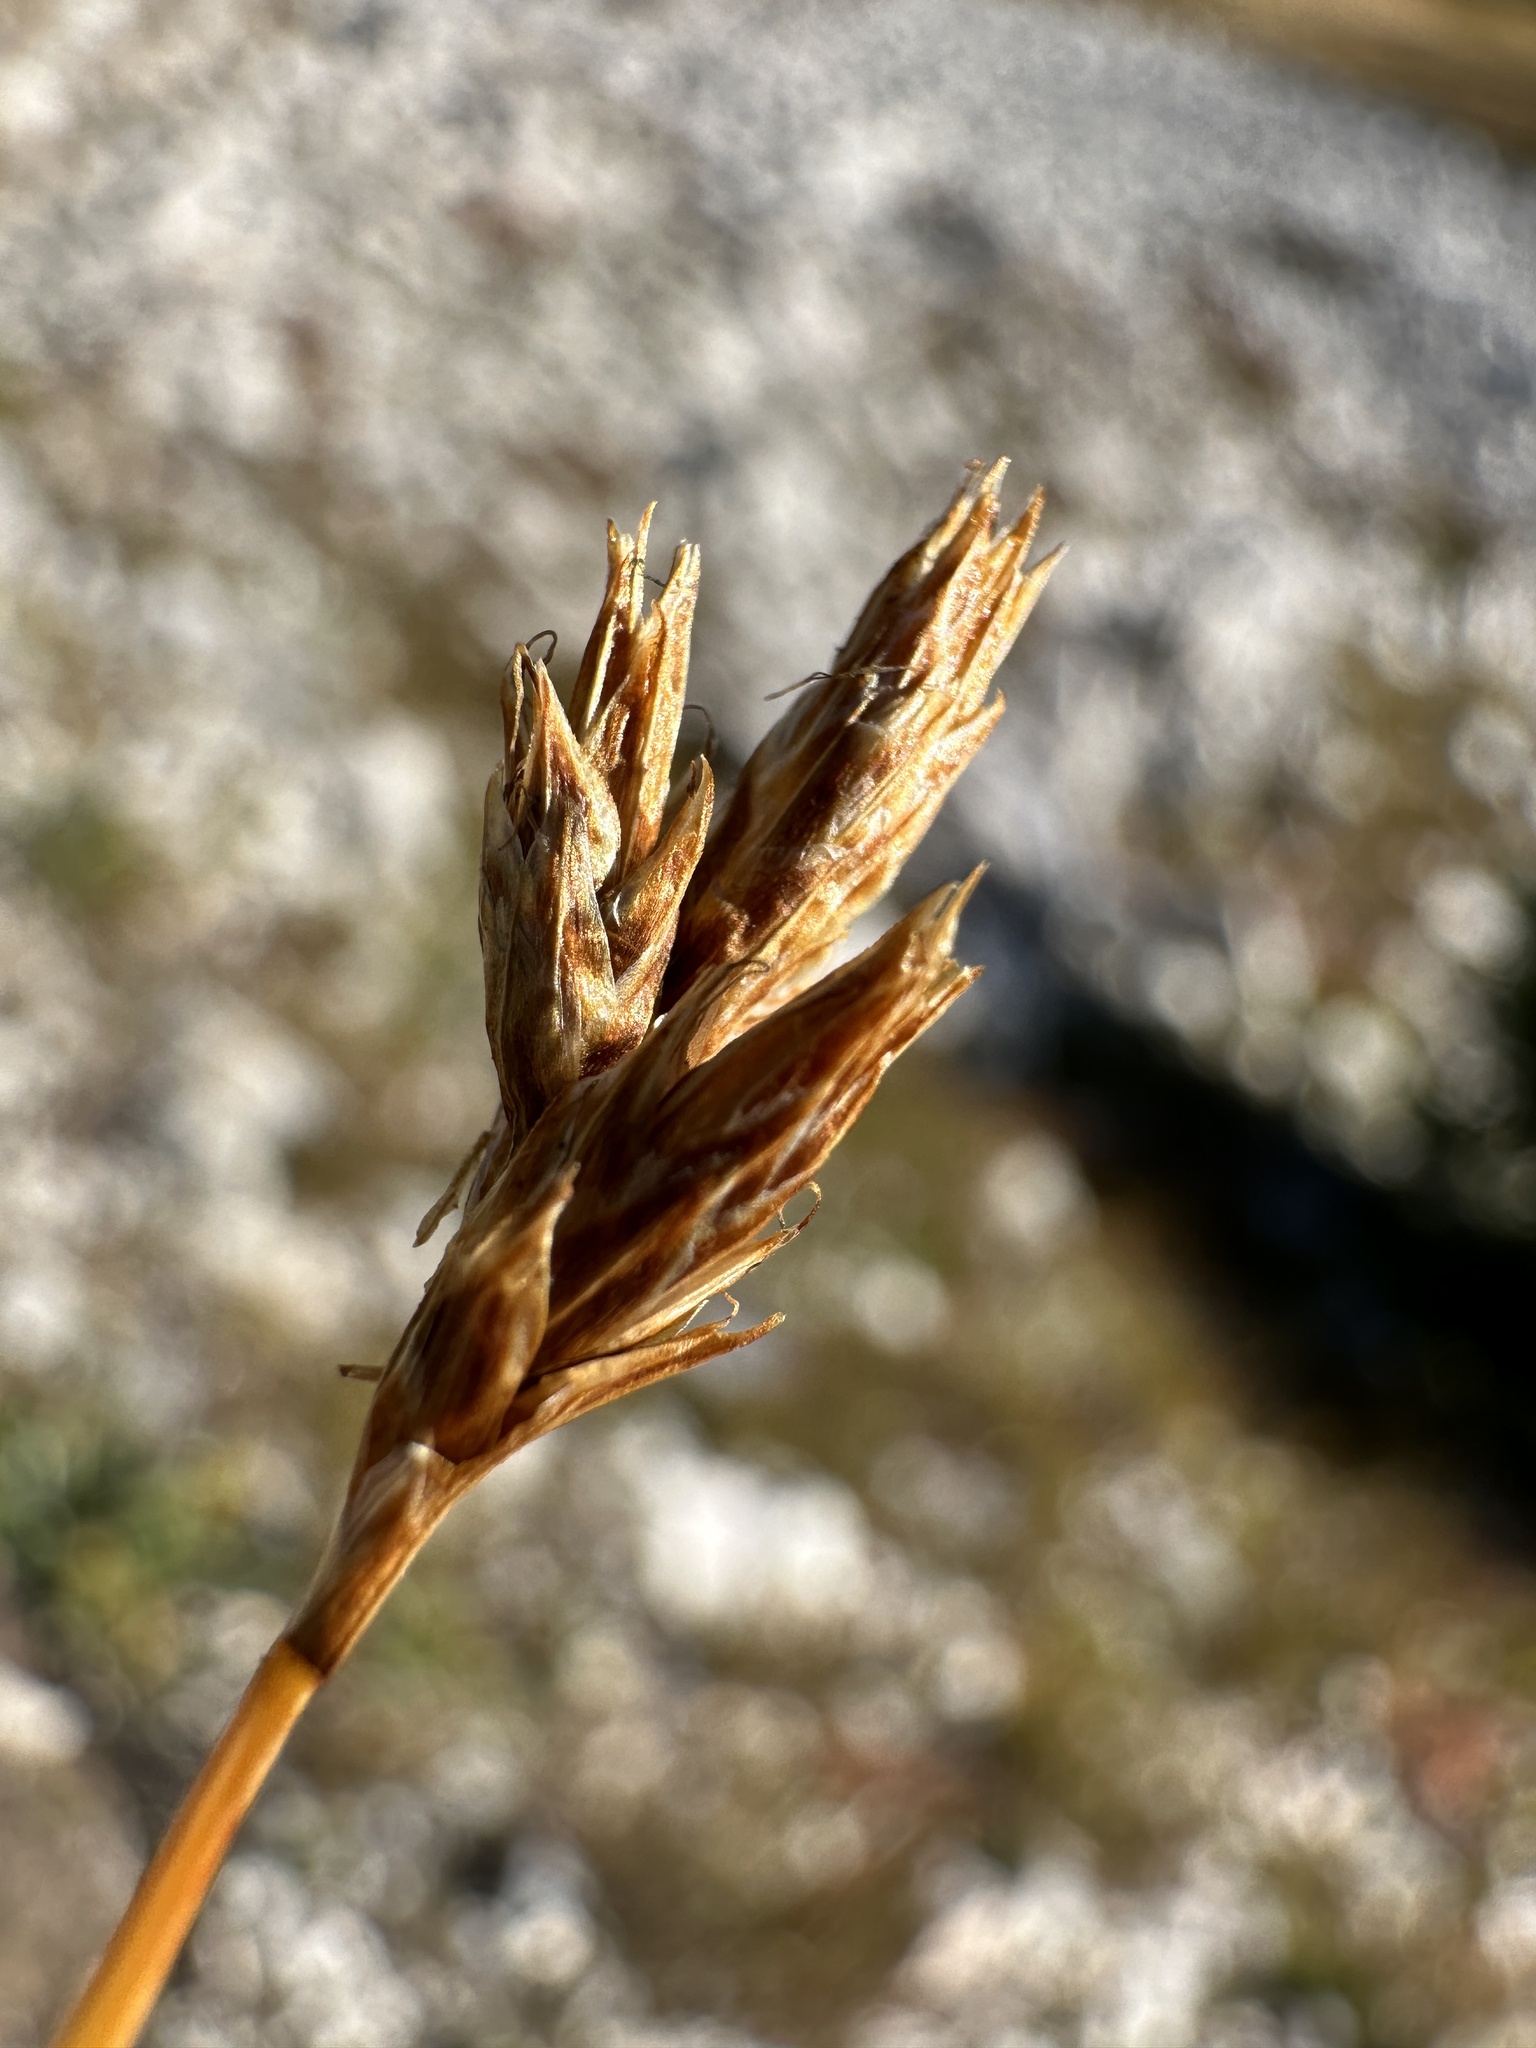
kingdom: Plantae
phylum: Tracheophyta
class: Liliopsida
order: Poales
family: Cyperaceae
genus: Carex
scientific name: Carex phaeocephala
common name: Brown-head sedge
